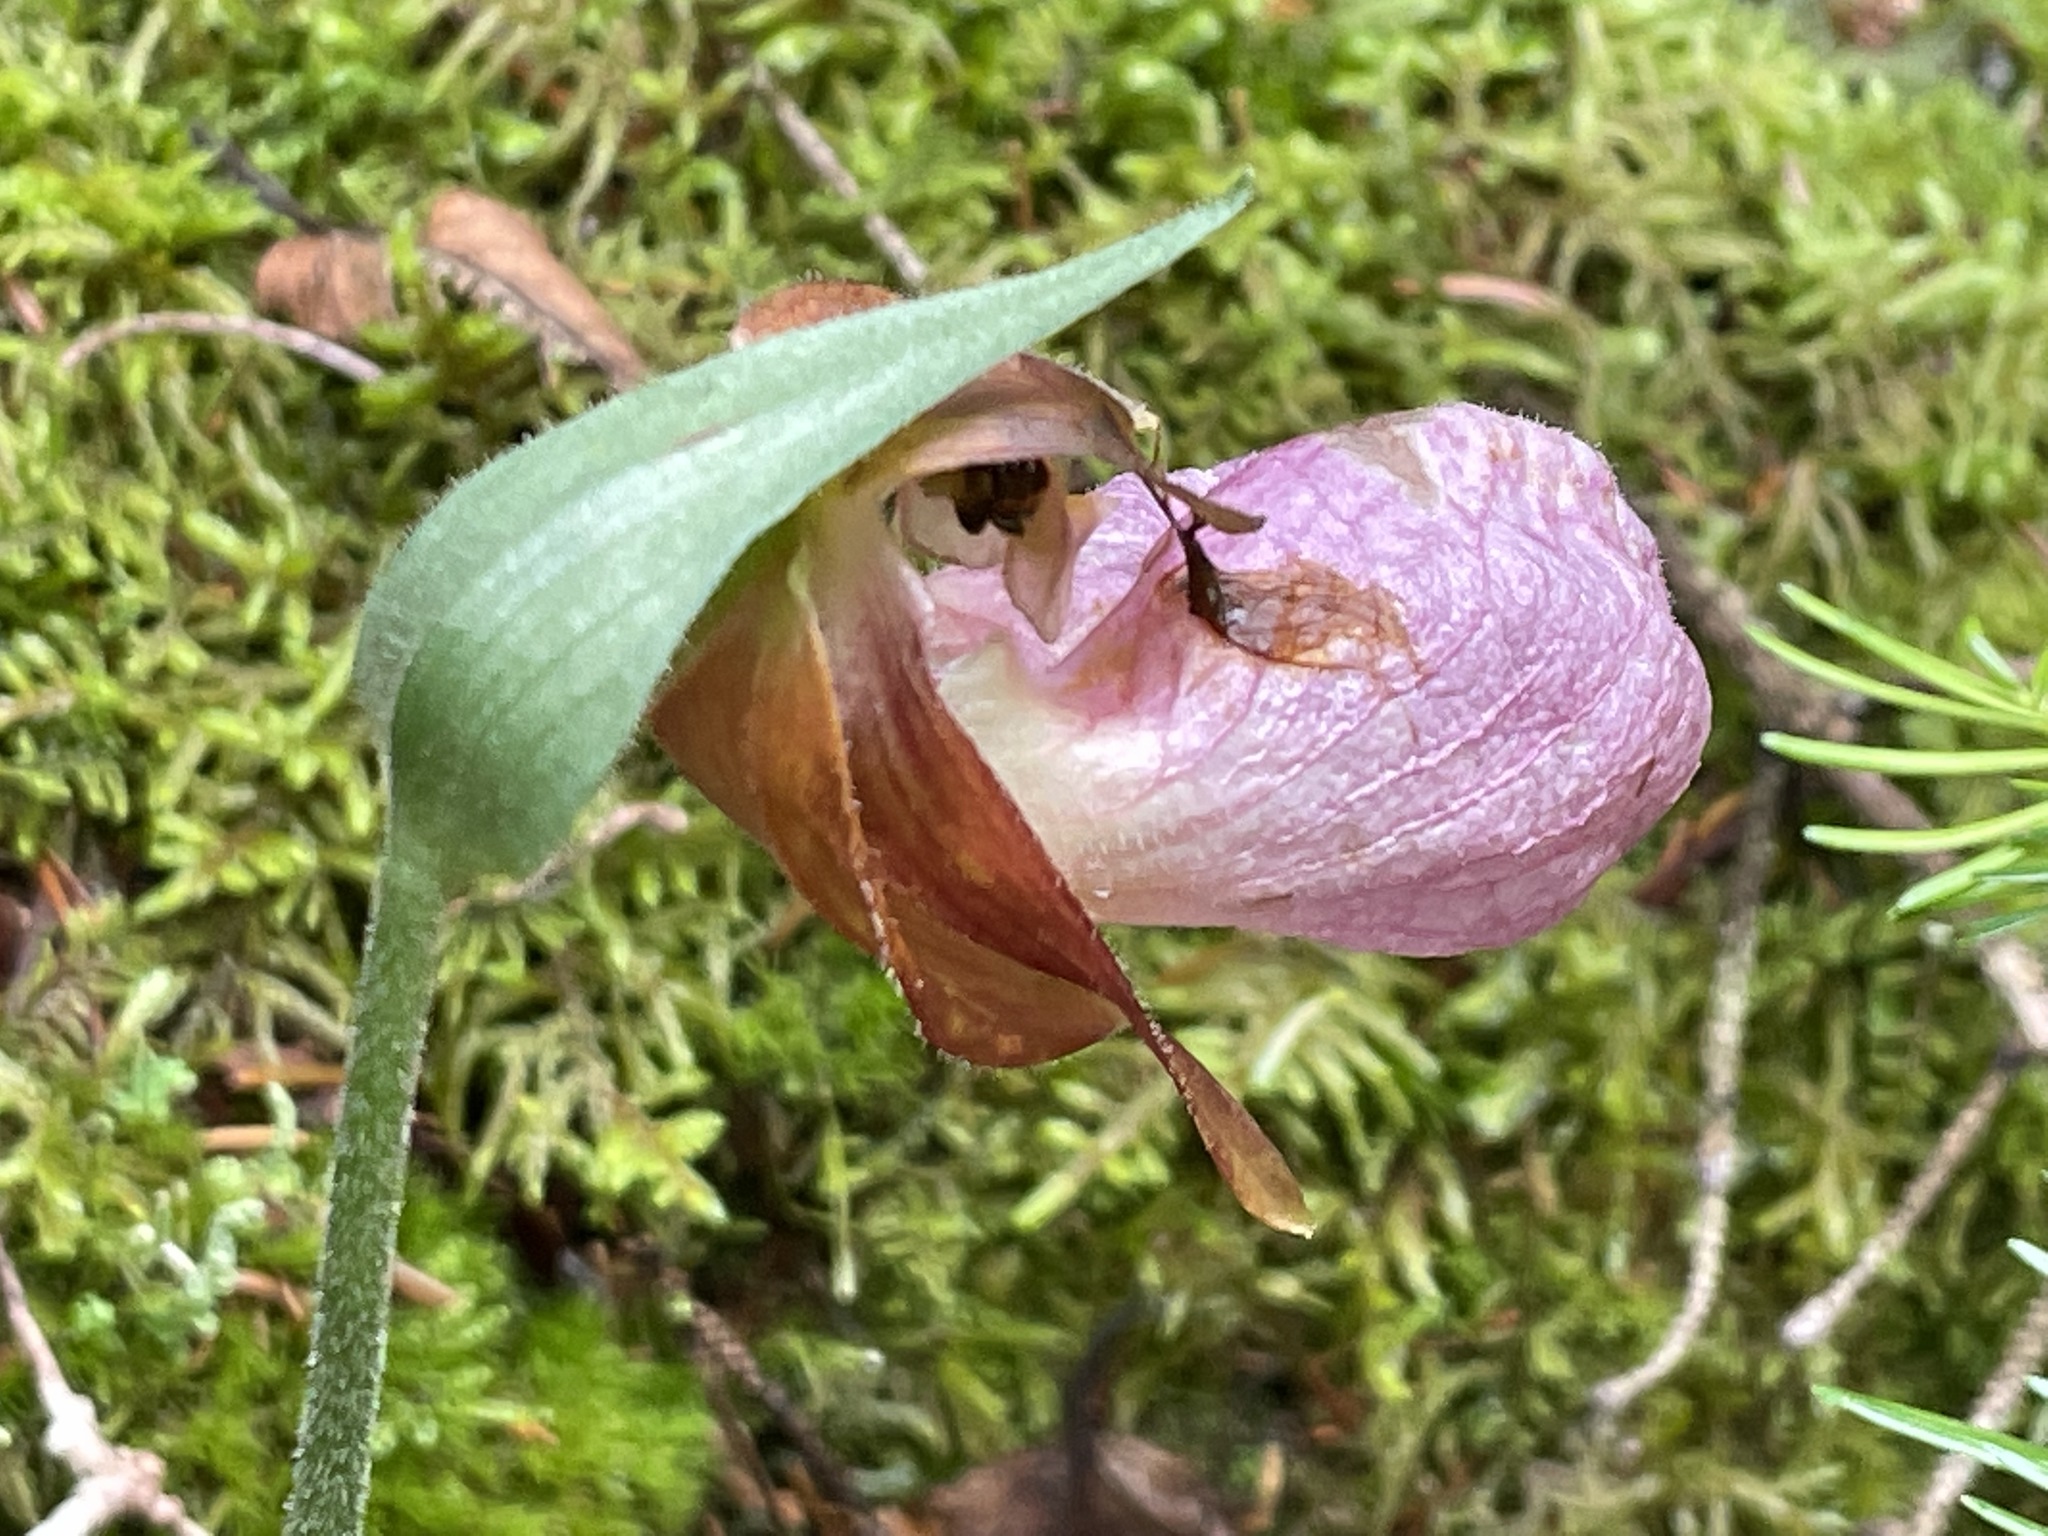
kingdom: Plantae
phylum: Tracheophyta
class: Liliopsida
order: Asparagales
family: Orchidaceae
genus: Cypripedium
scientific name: Cypripedium acaule
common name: Pink lady's-slipper
